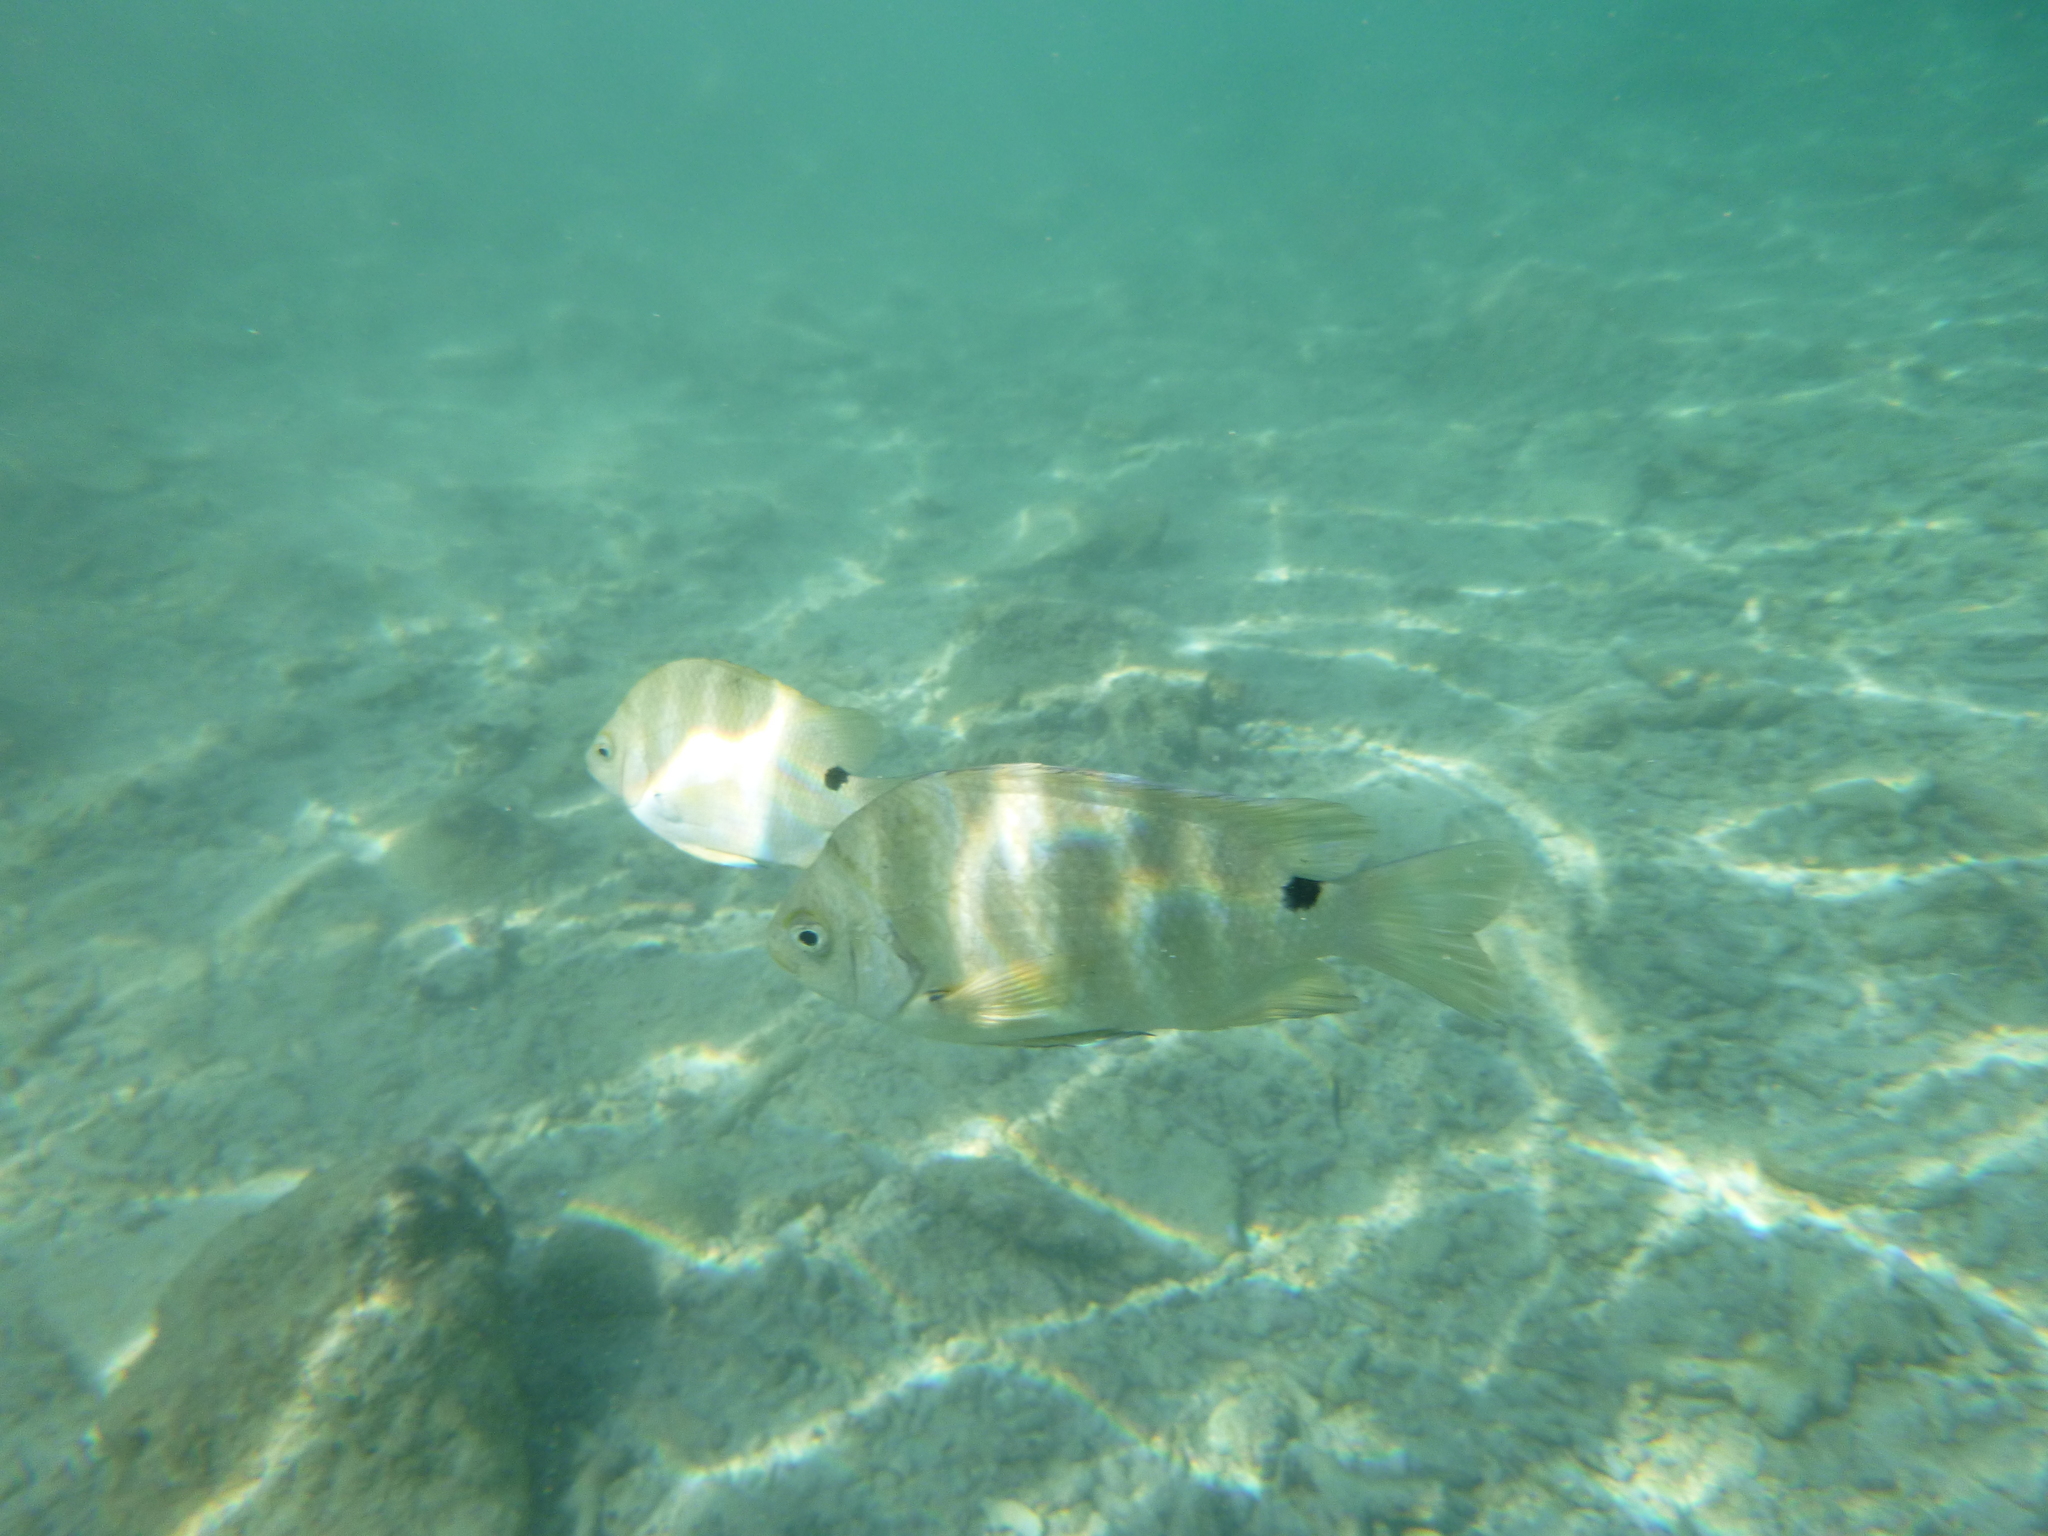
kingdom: Animalia
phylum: Chordata
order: Perciformes
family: Pomacentridae
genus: Abudefduf
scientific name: Abudefduf sordidus
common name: Blackspot sergeant
